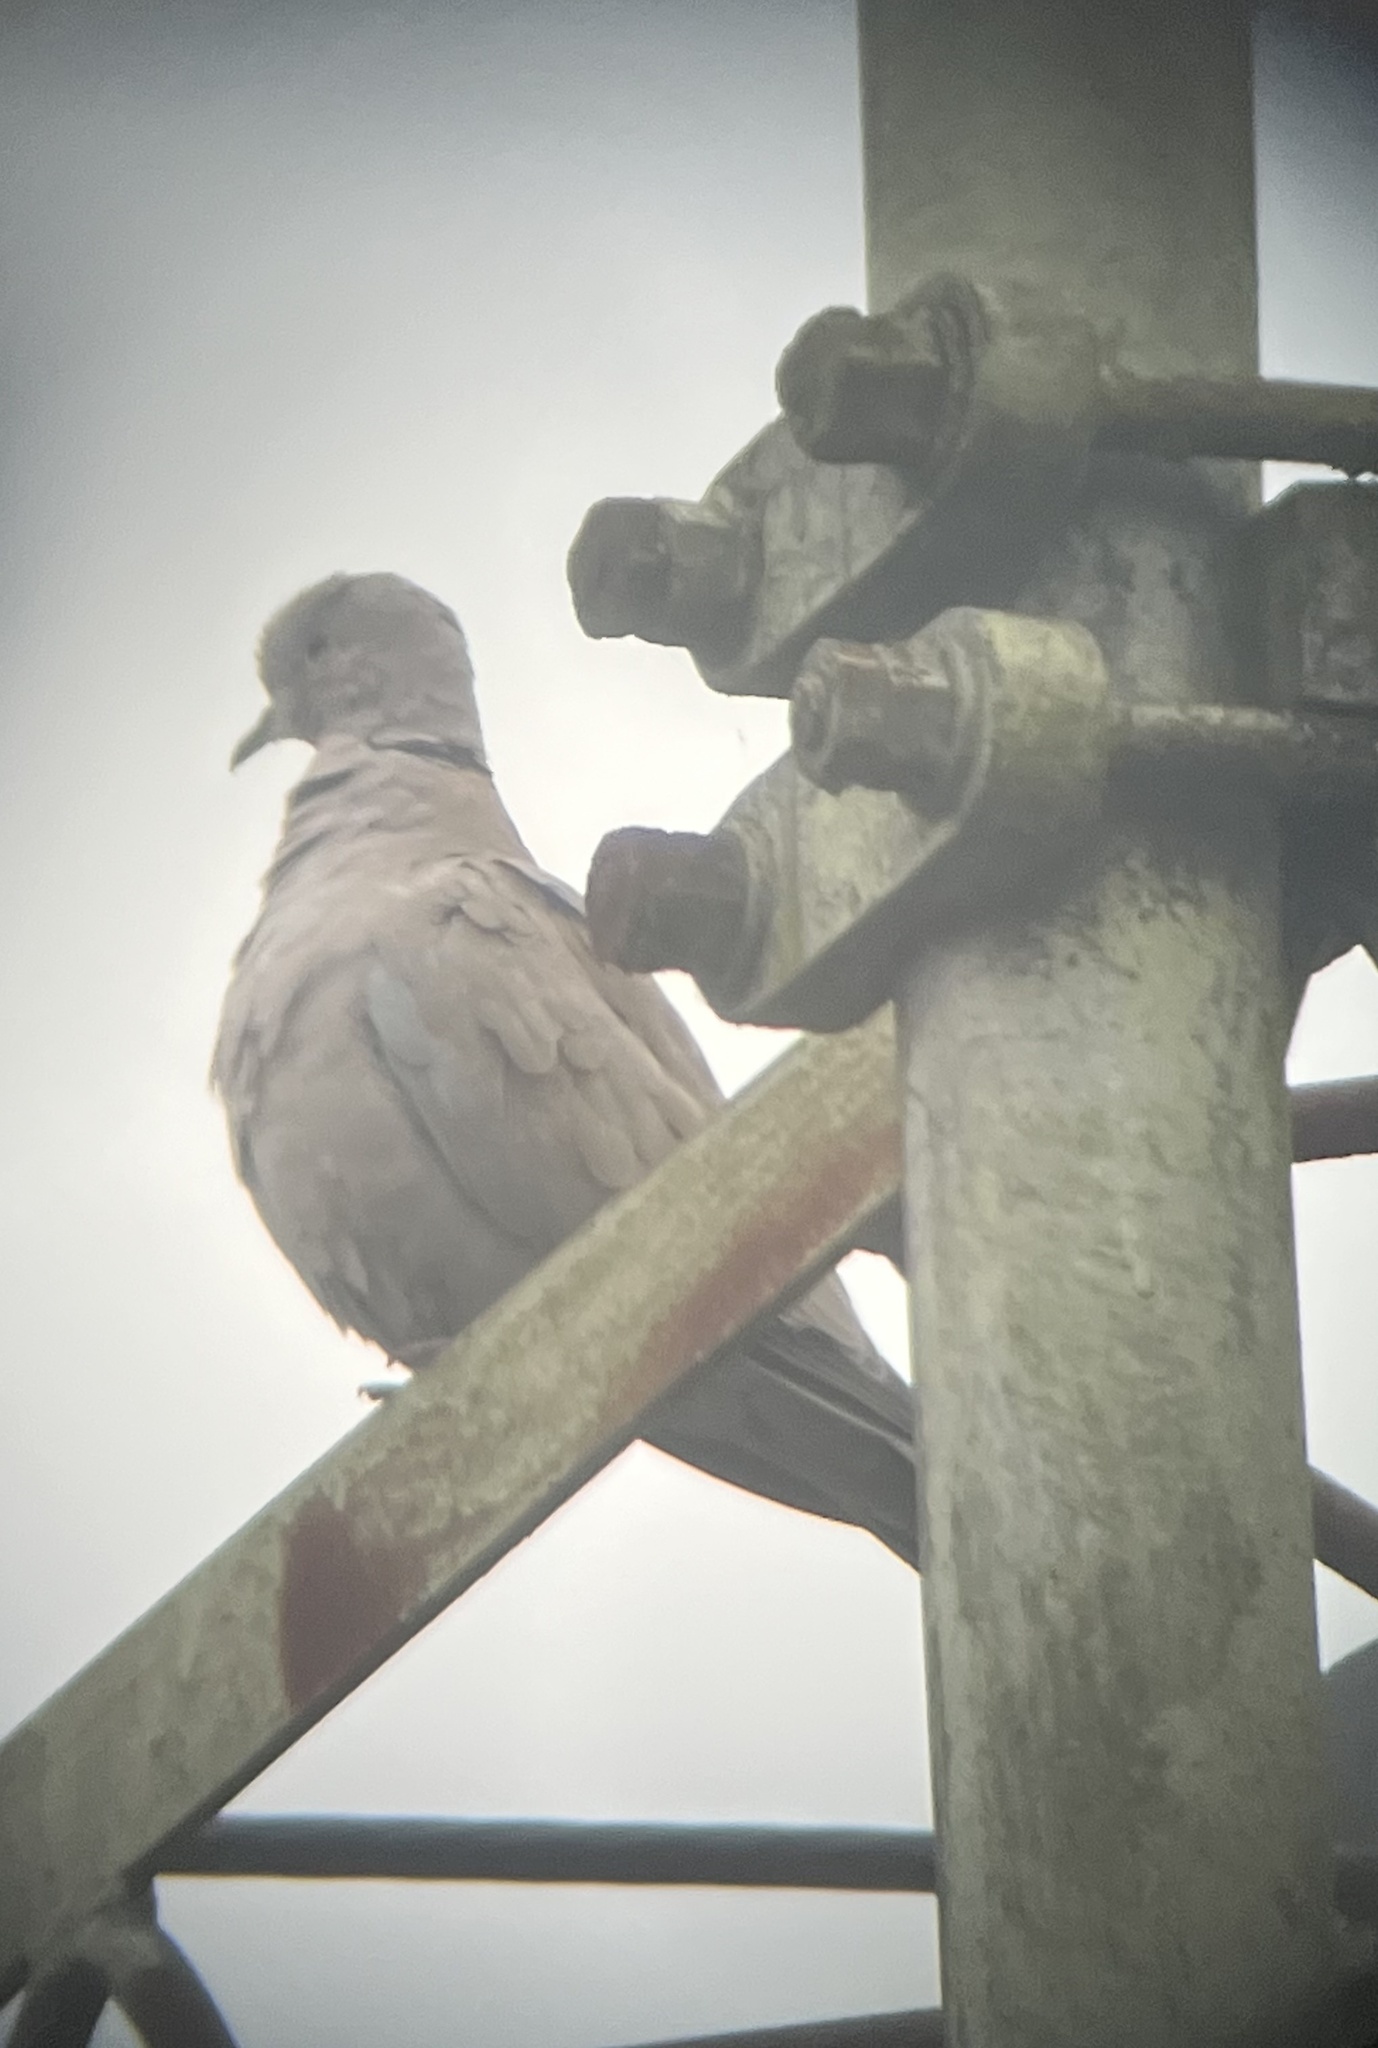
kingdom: Animalia
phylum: Chordata
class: Aves
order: Columbiformes
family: Columbidae
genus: Streptopelia
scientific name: Streptopelia decaocto
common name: Eurasian collared dove
